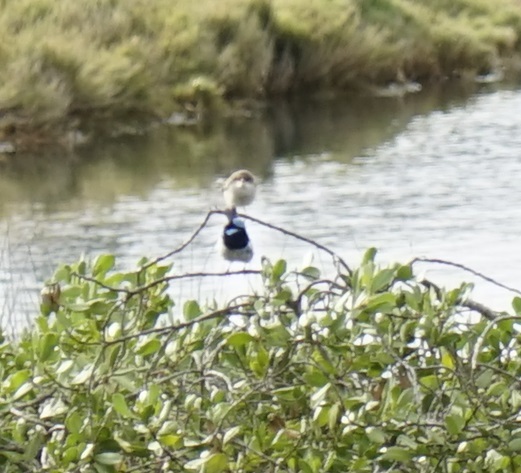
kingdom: Animalia
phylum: Chordata
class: Aves
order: Passeriformes
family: Maluridae
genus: Malurus
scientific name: Malurus cyaneus
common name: Superb fairywren
